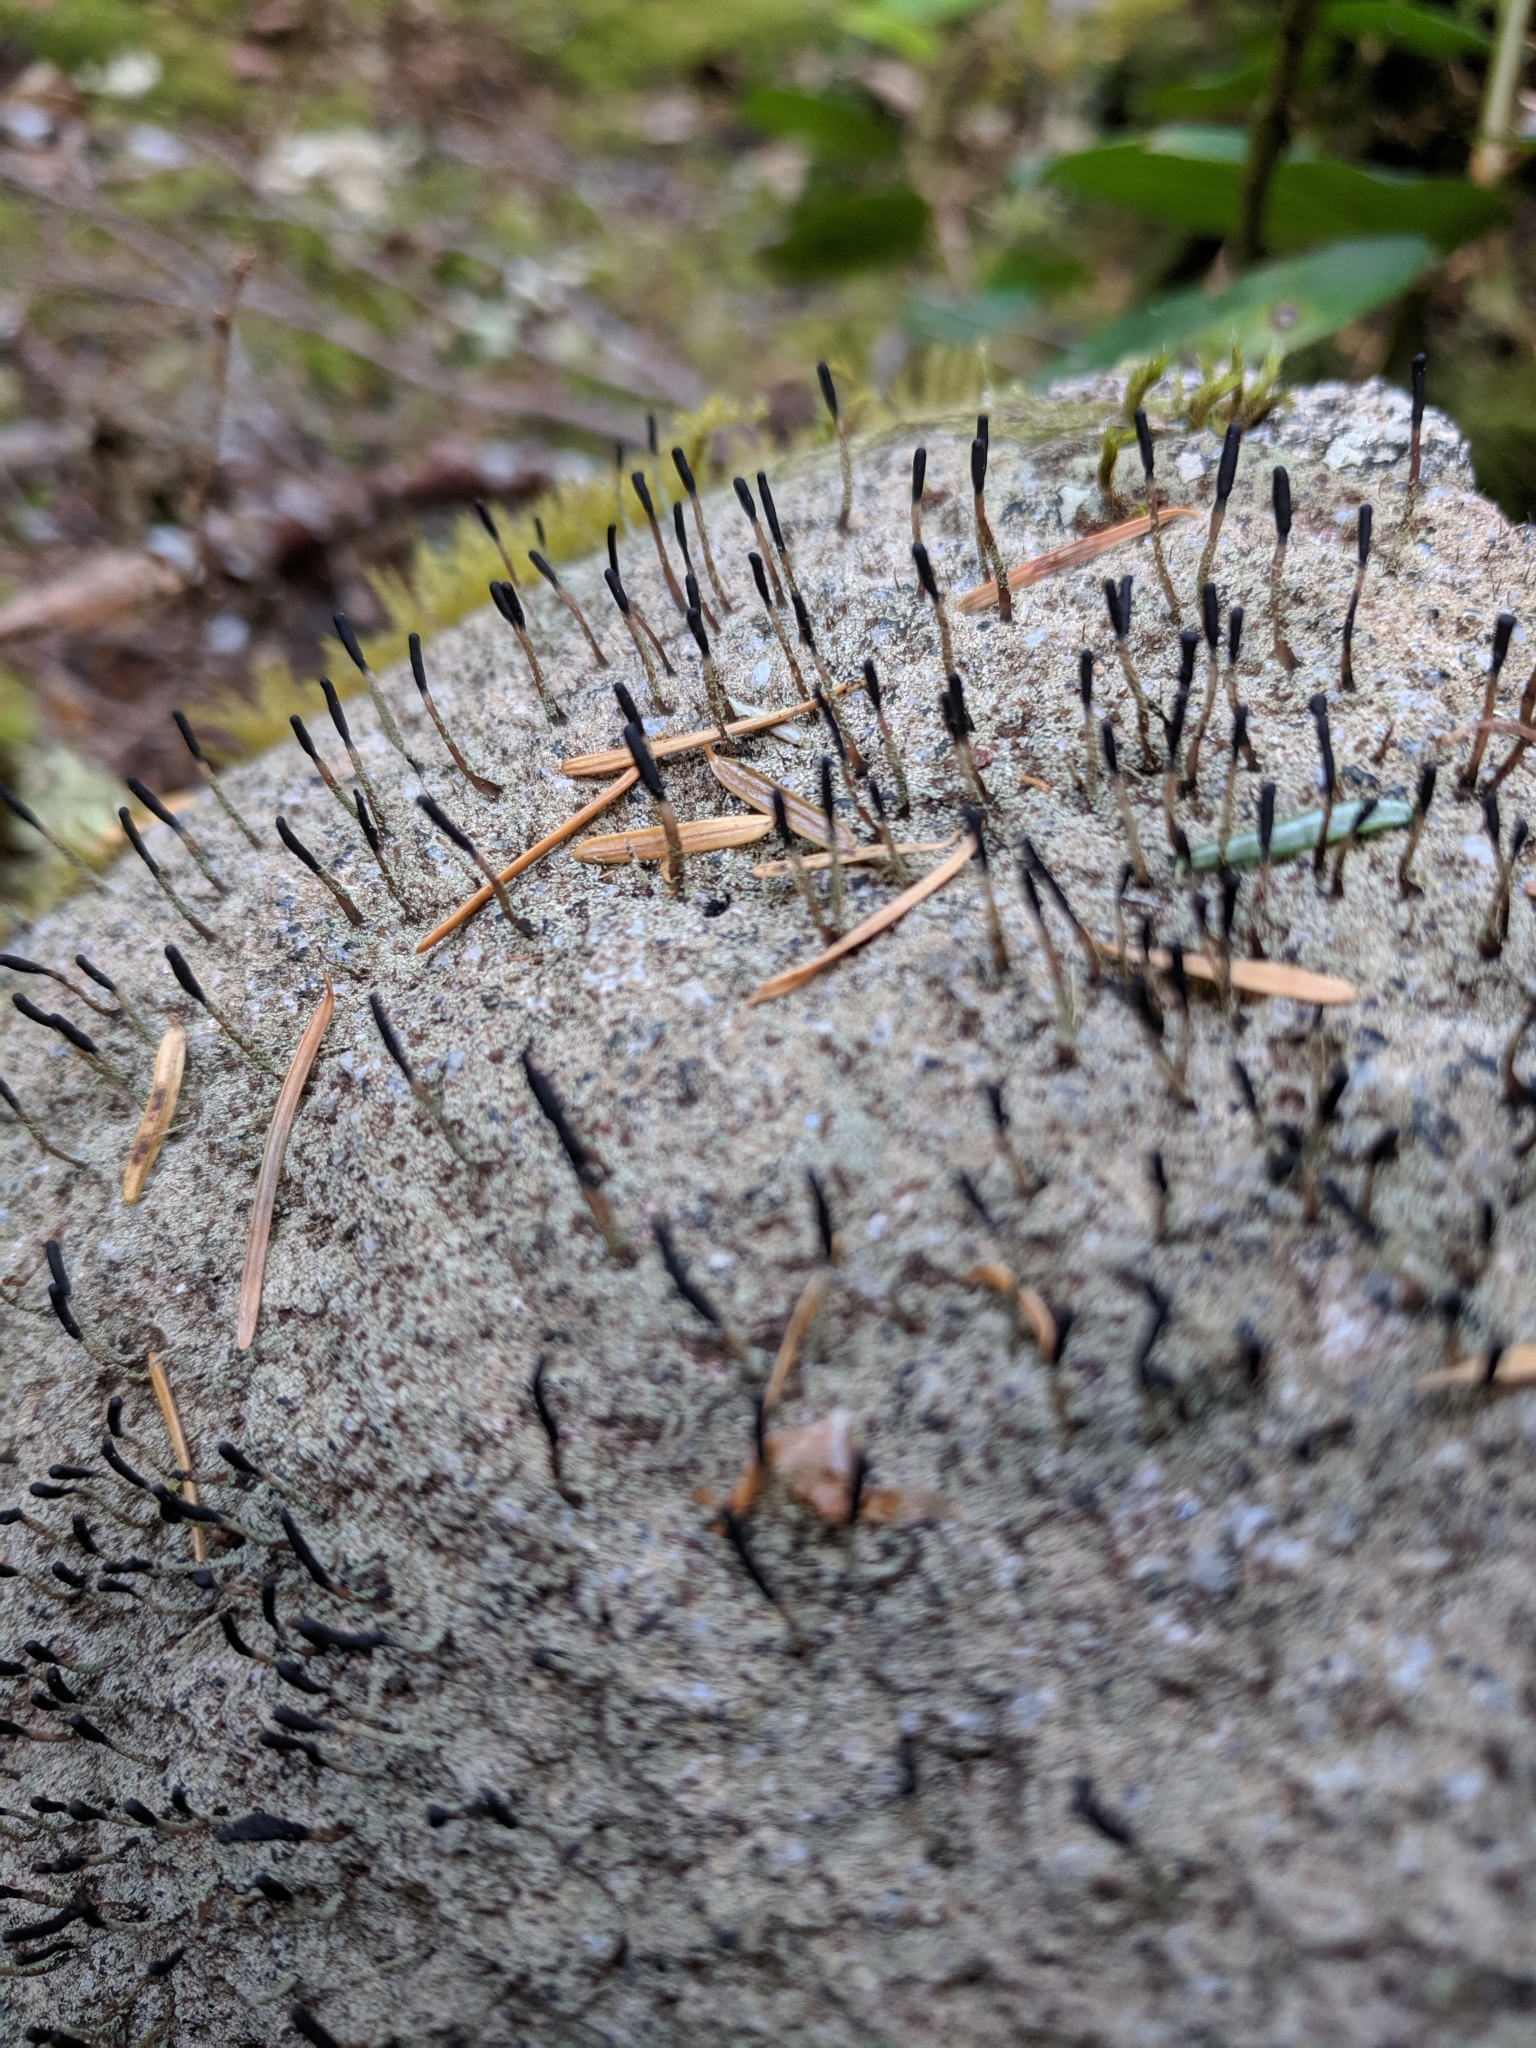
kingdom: Fungi
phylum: Ascomycota
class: Lecanoromycetes
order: Lecanorales
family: Cladoniaceae
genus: Pilophorus
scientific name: Pilophorus clavatus
